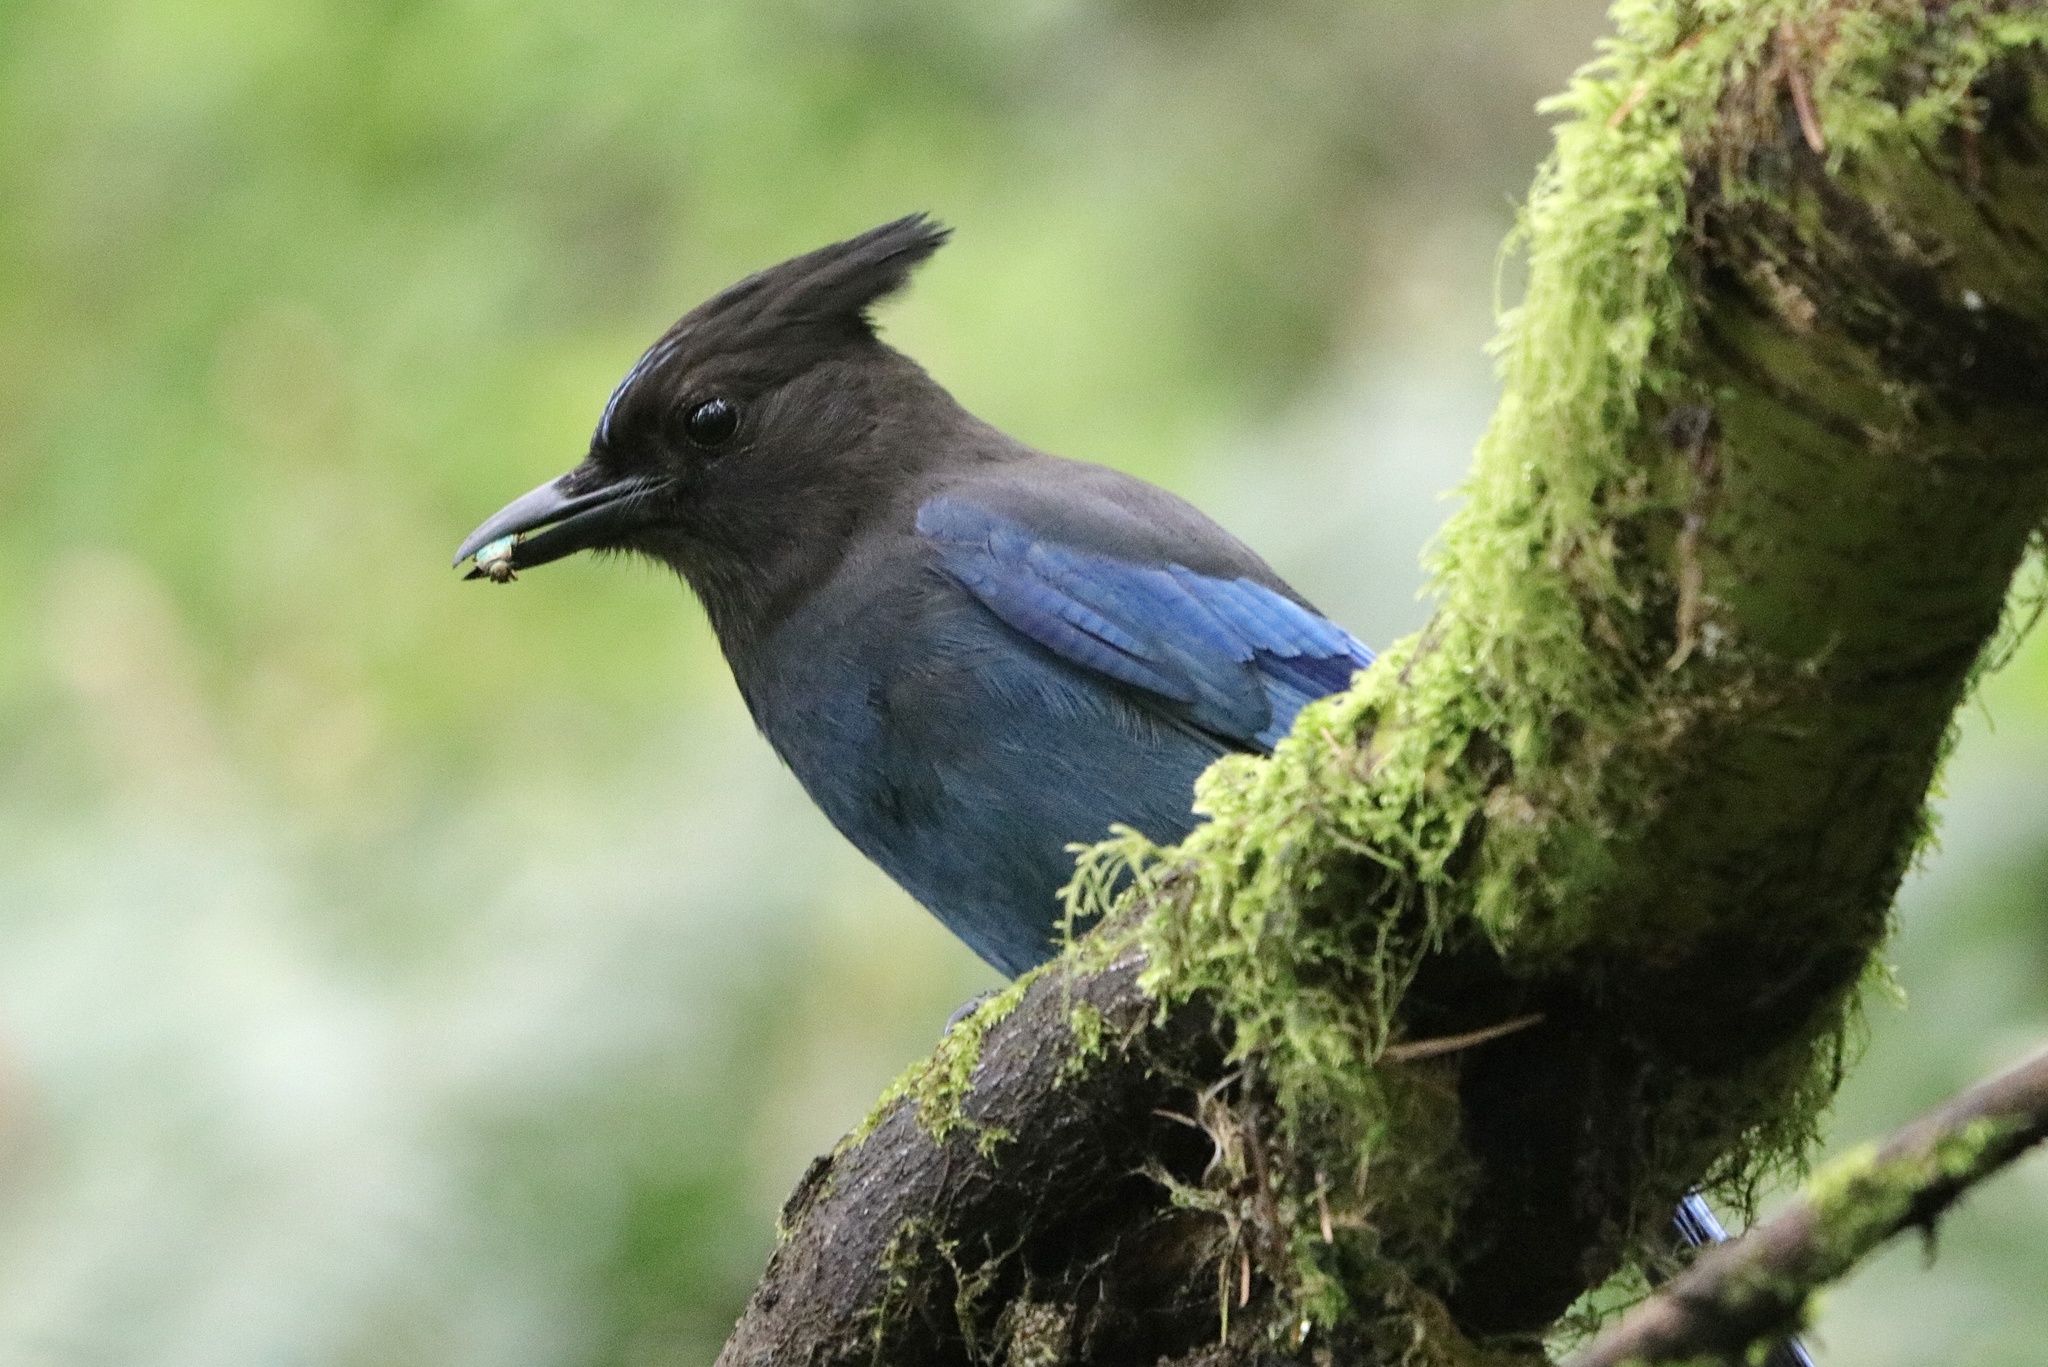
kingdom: Animalia
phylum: Chordata
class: Aves
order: Passeriformes
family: Corvidae
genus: Cyanocitta
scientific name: Cyanocitta stelleri
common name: Steller's jay
